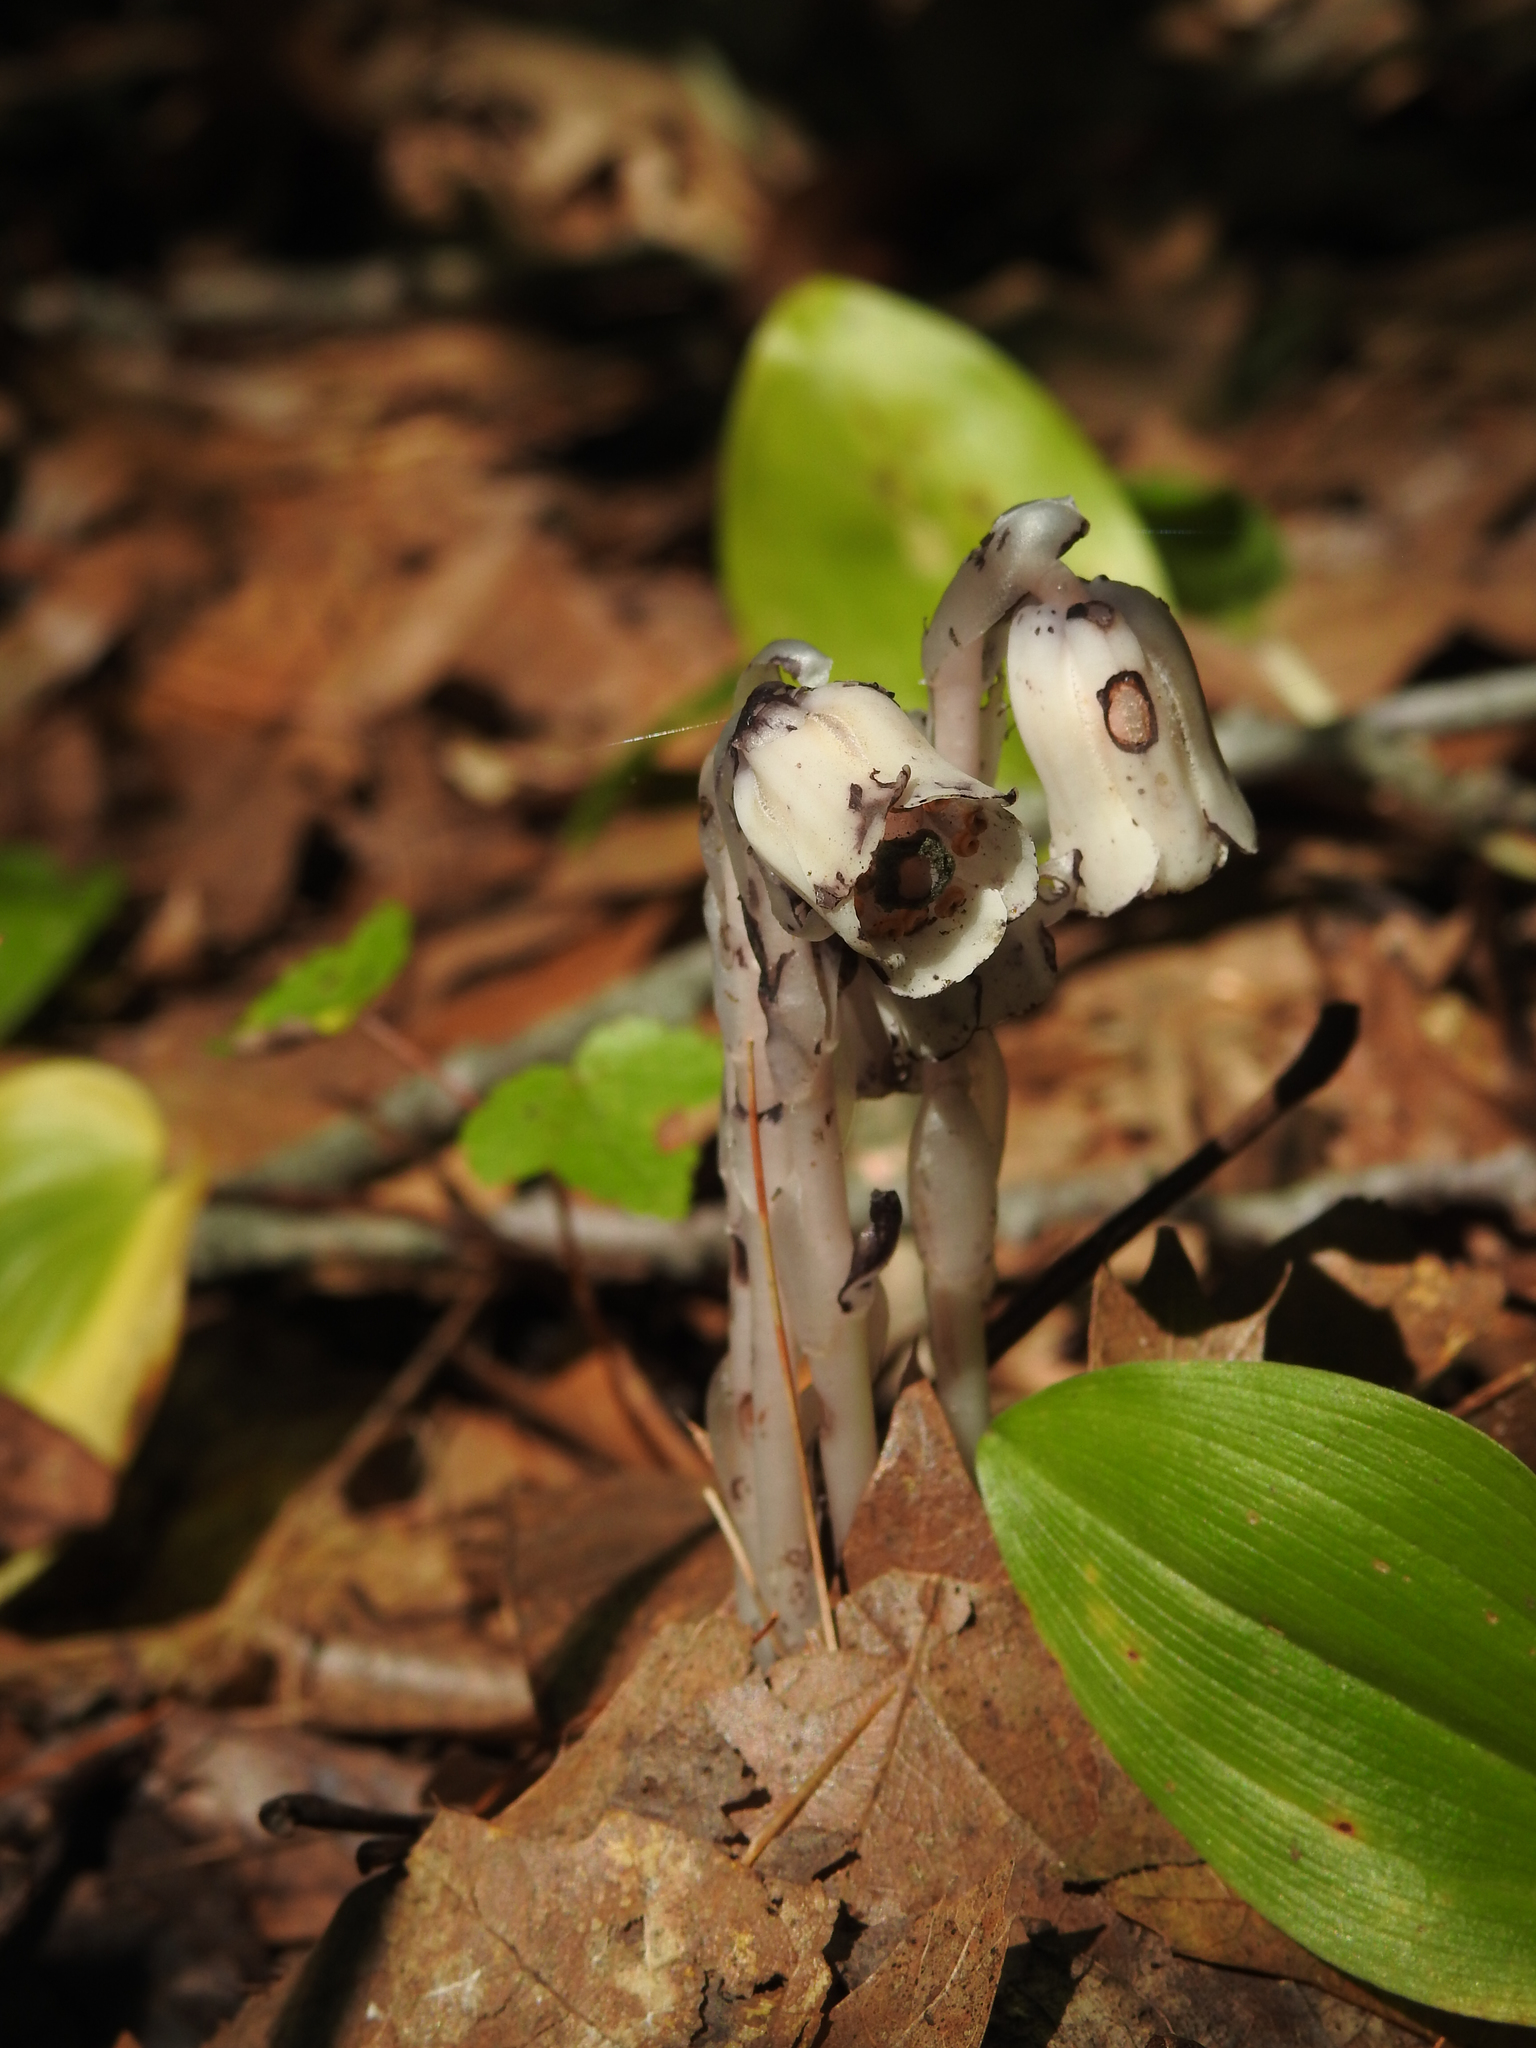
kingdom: Plantae
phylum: Tracheophyta
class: Magnoliopsida
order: Ericales
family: Ericaceae
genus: Monotropa
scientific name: Monotropa uniflora
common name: Convulsion root
